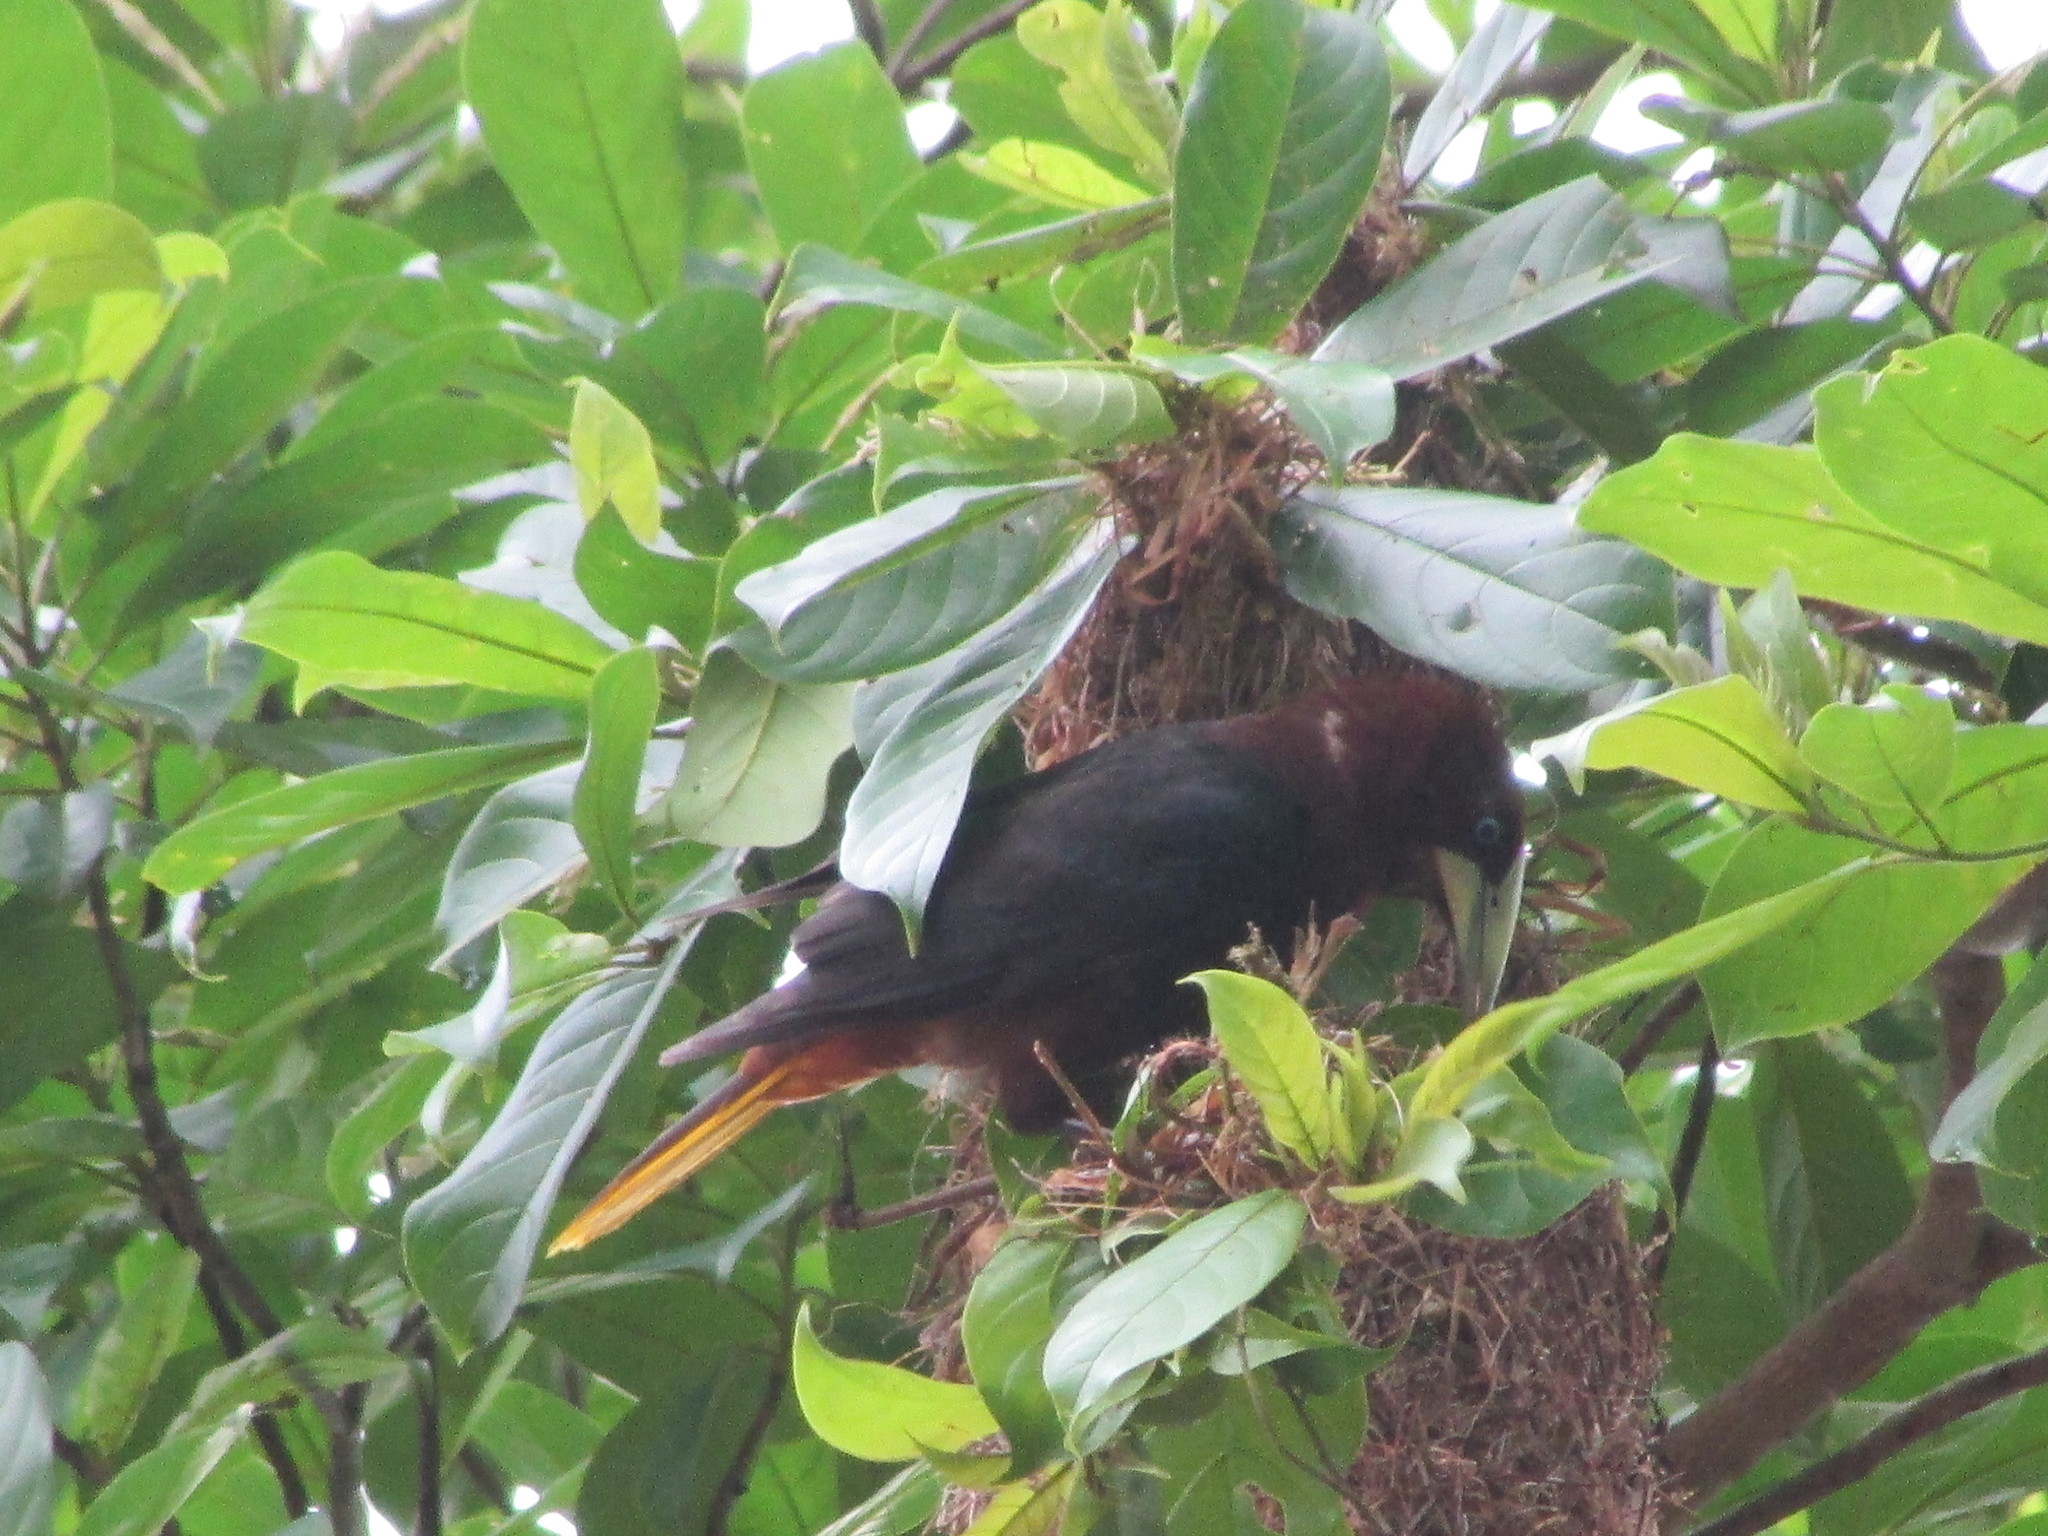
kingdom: Animalia
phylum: Chordata
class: Aves
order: Passeriformes
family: Icteridae
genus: Psarocolius
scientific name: Psarocolius wagleri
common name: Chestnut-headed oropendola
